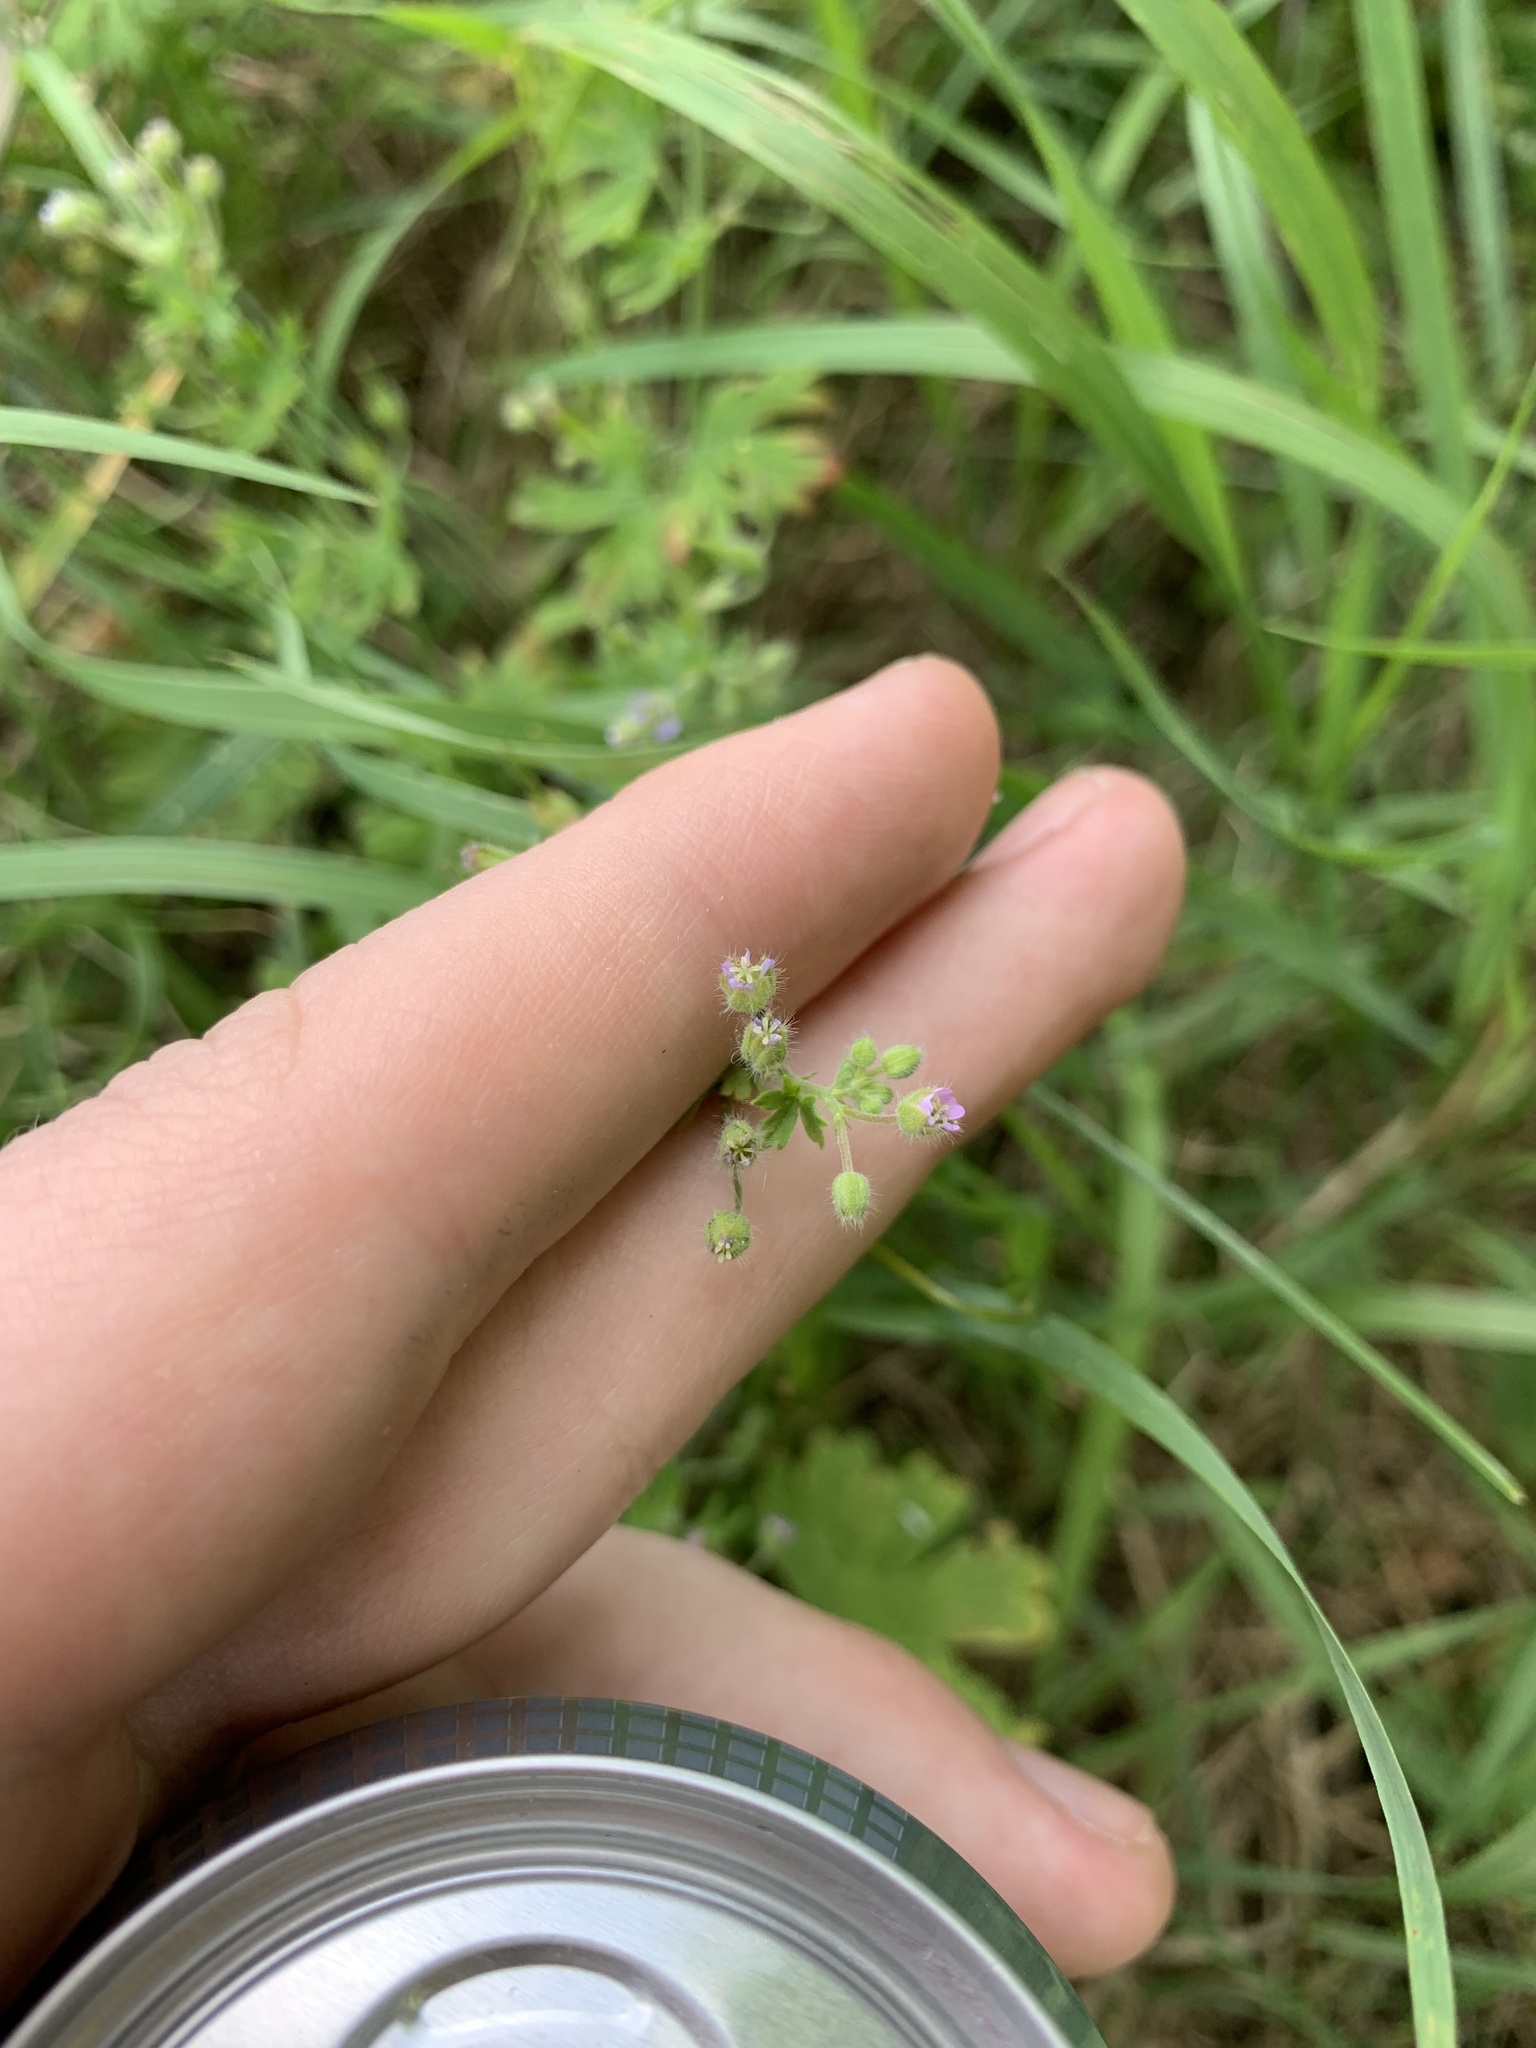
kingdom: Plantae
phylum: Tracheophyta
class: Magnoliopsida
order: Geraniales
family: Geraniaceae
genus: Geranium
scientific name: Geranium pusillum
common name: Small geranium
